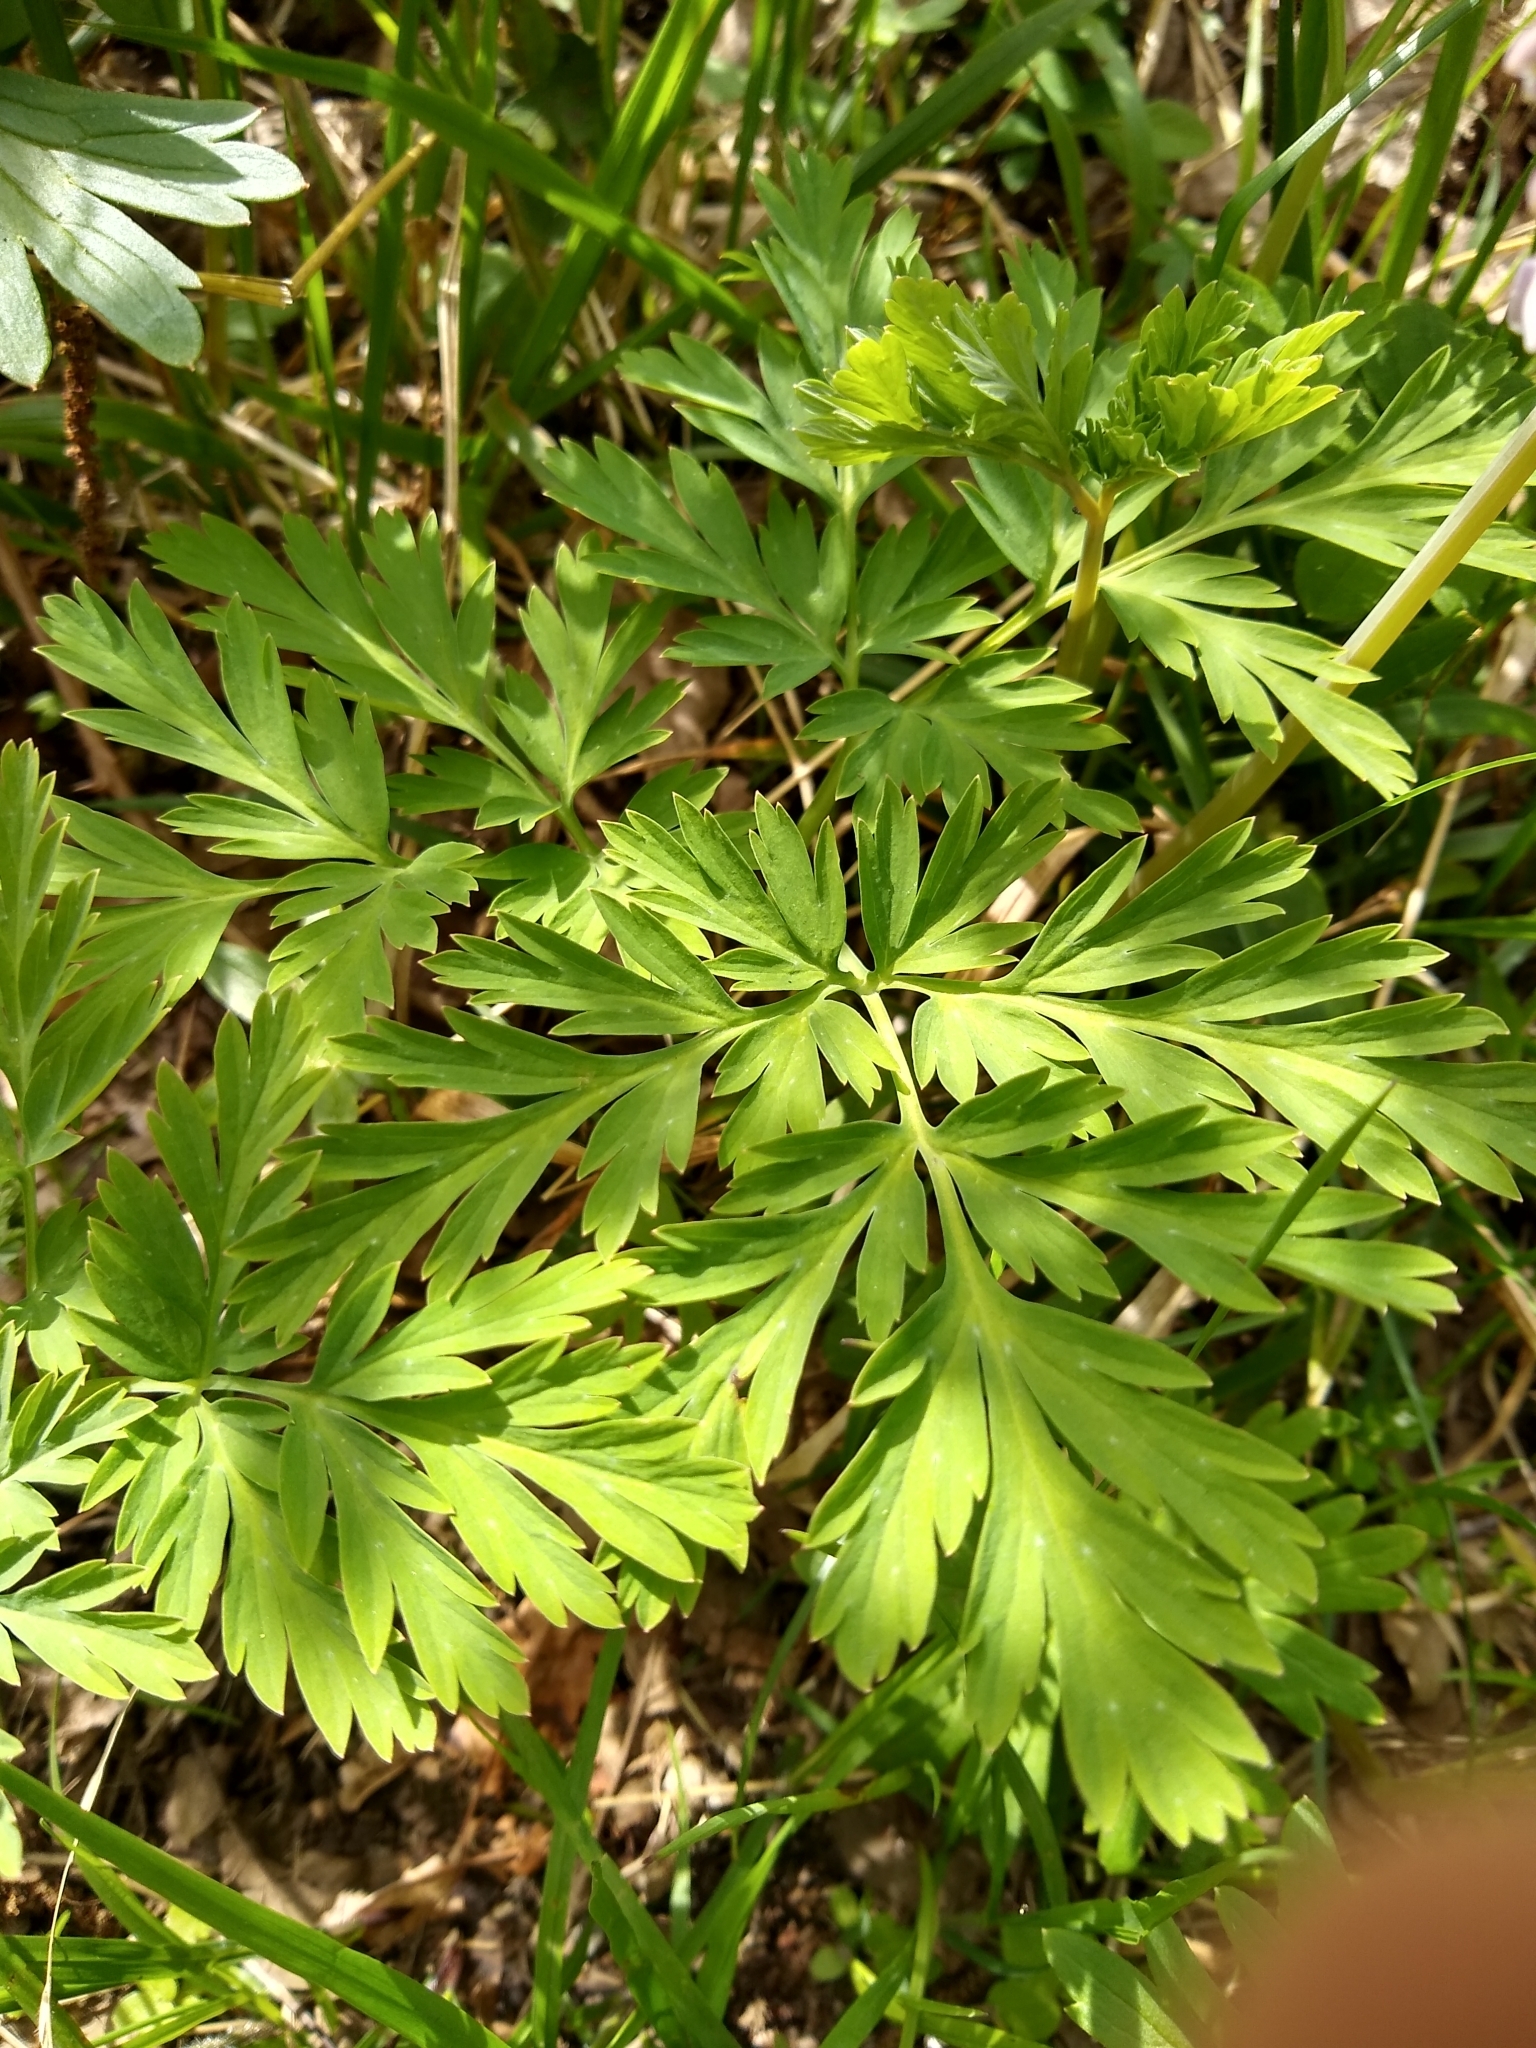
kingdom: Plantae
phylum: Tracheophyta
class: Magnoliopsida
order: Ranunculales
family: Papaveraceae
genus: Dicentra
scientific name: Dicentra formosa
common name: Bleeding-heart
